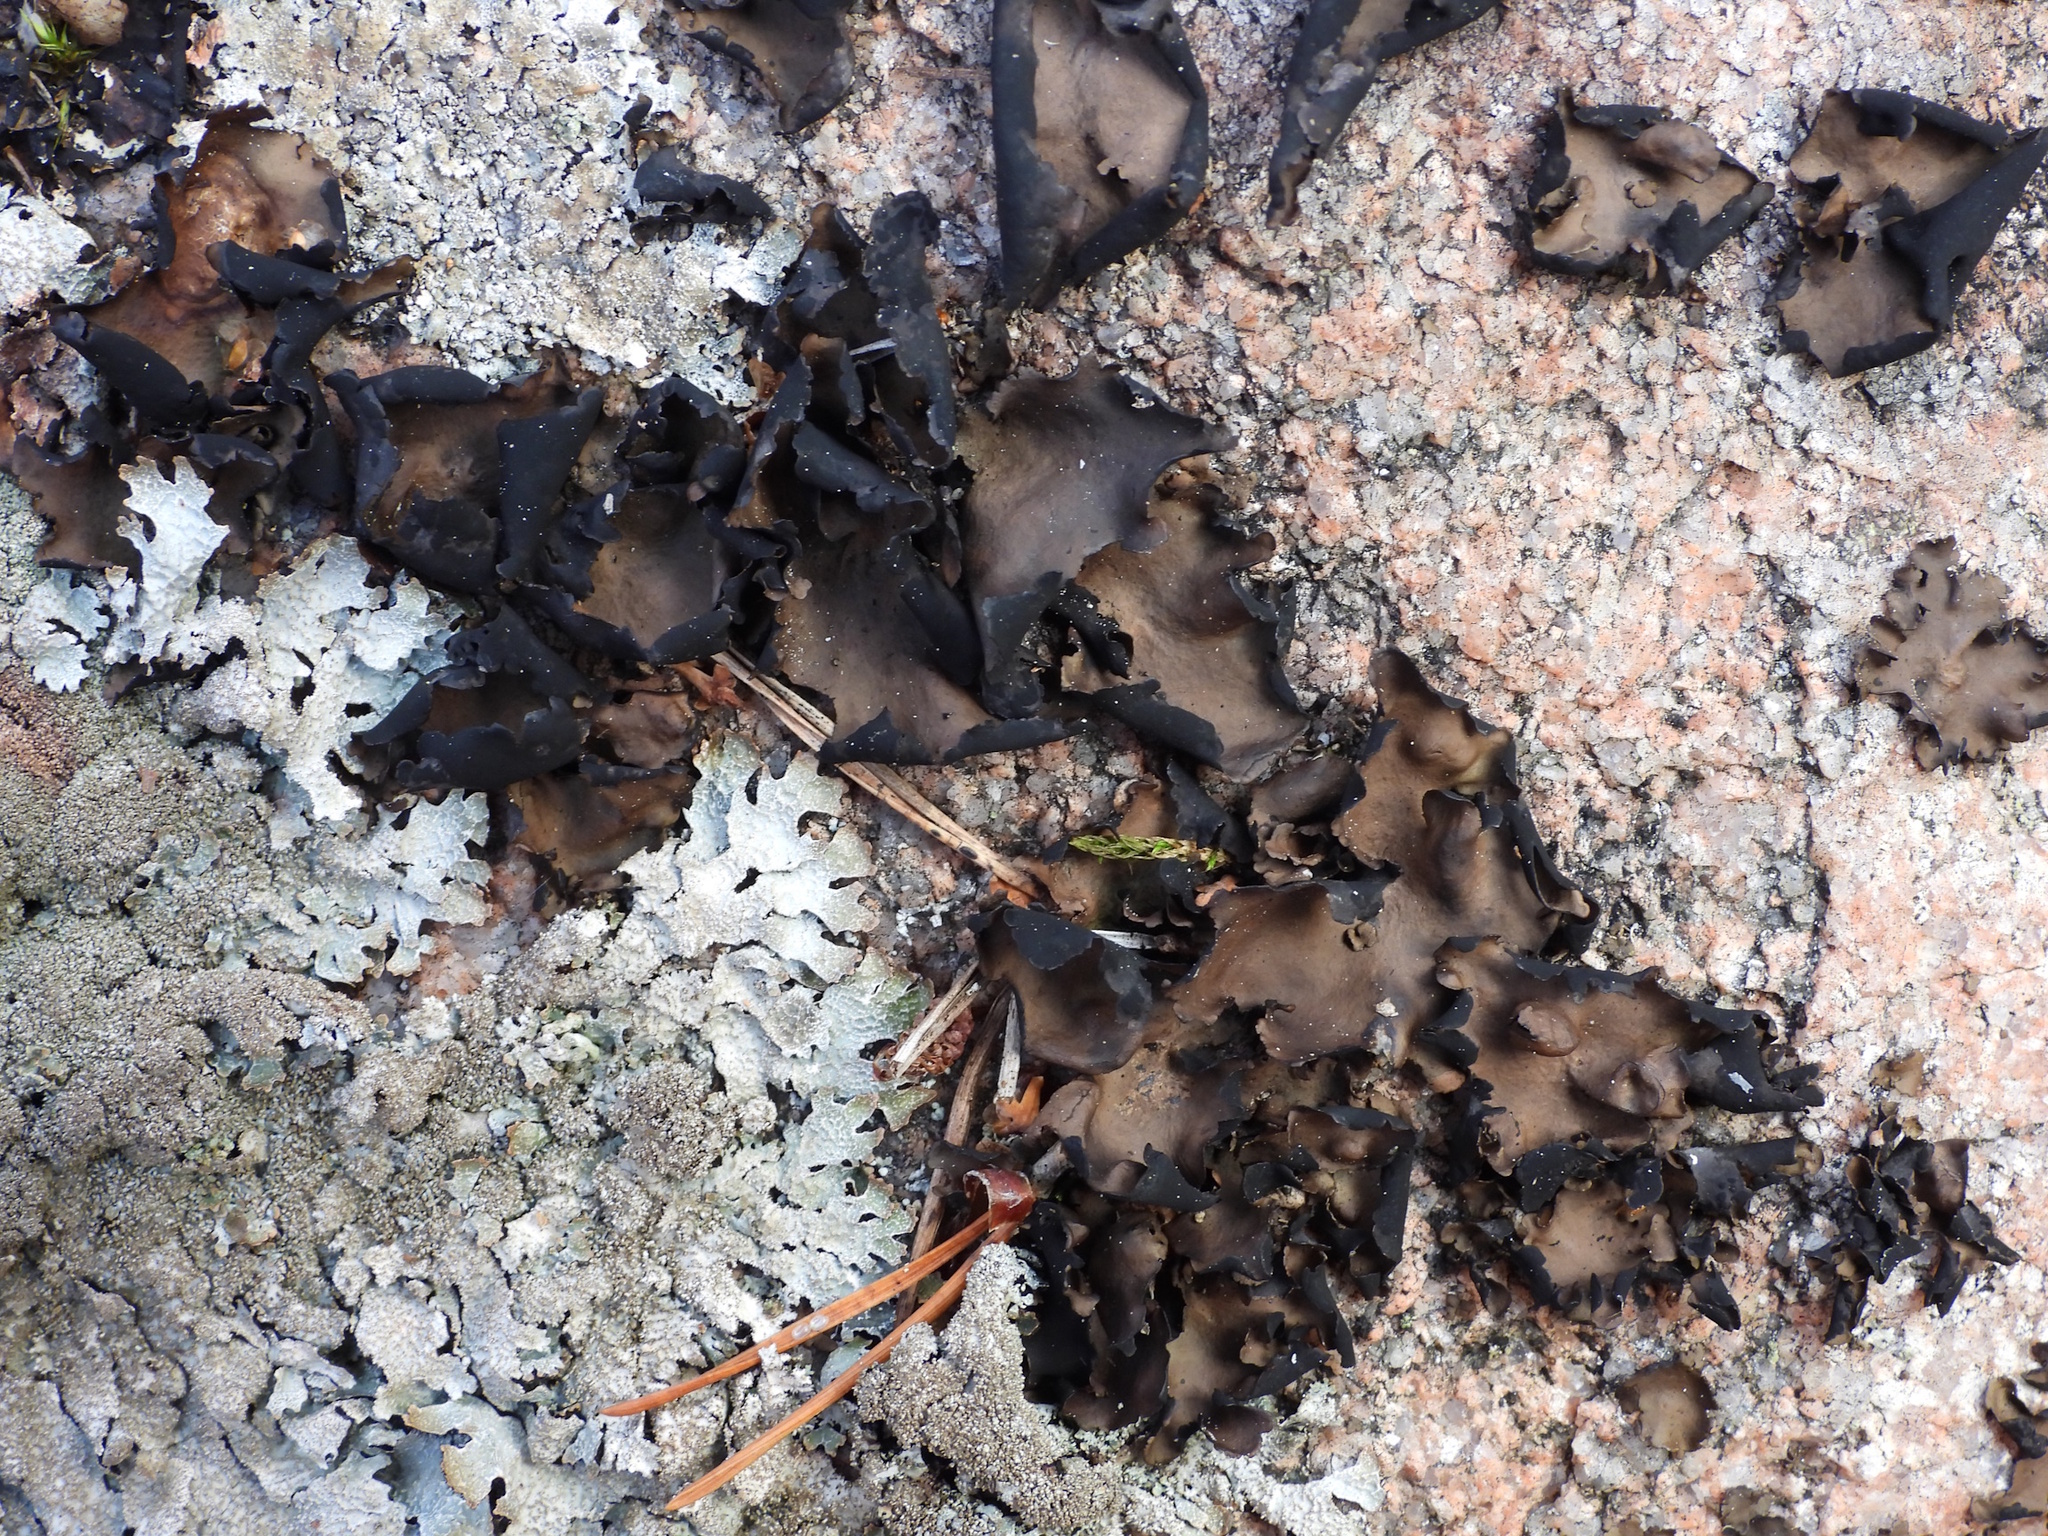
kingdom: Fungi
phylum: Ascomycota
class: Lecanoromycetes
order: Umbilicariales
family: Umbilicariaceae
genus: Umbilicaria
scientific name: Umbilicaria polyphylla
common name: Petalled rocktripe lichen
